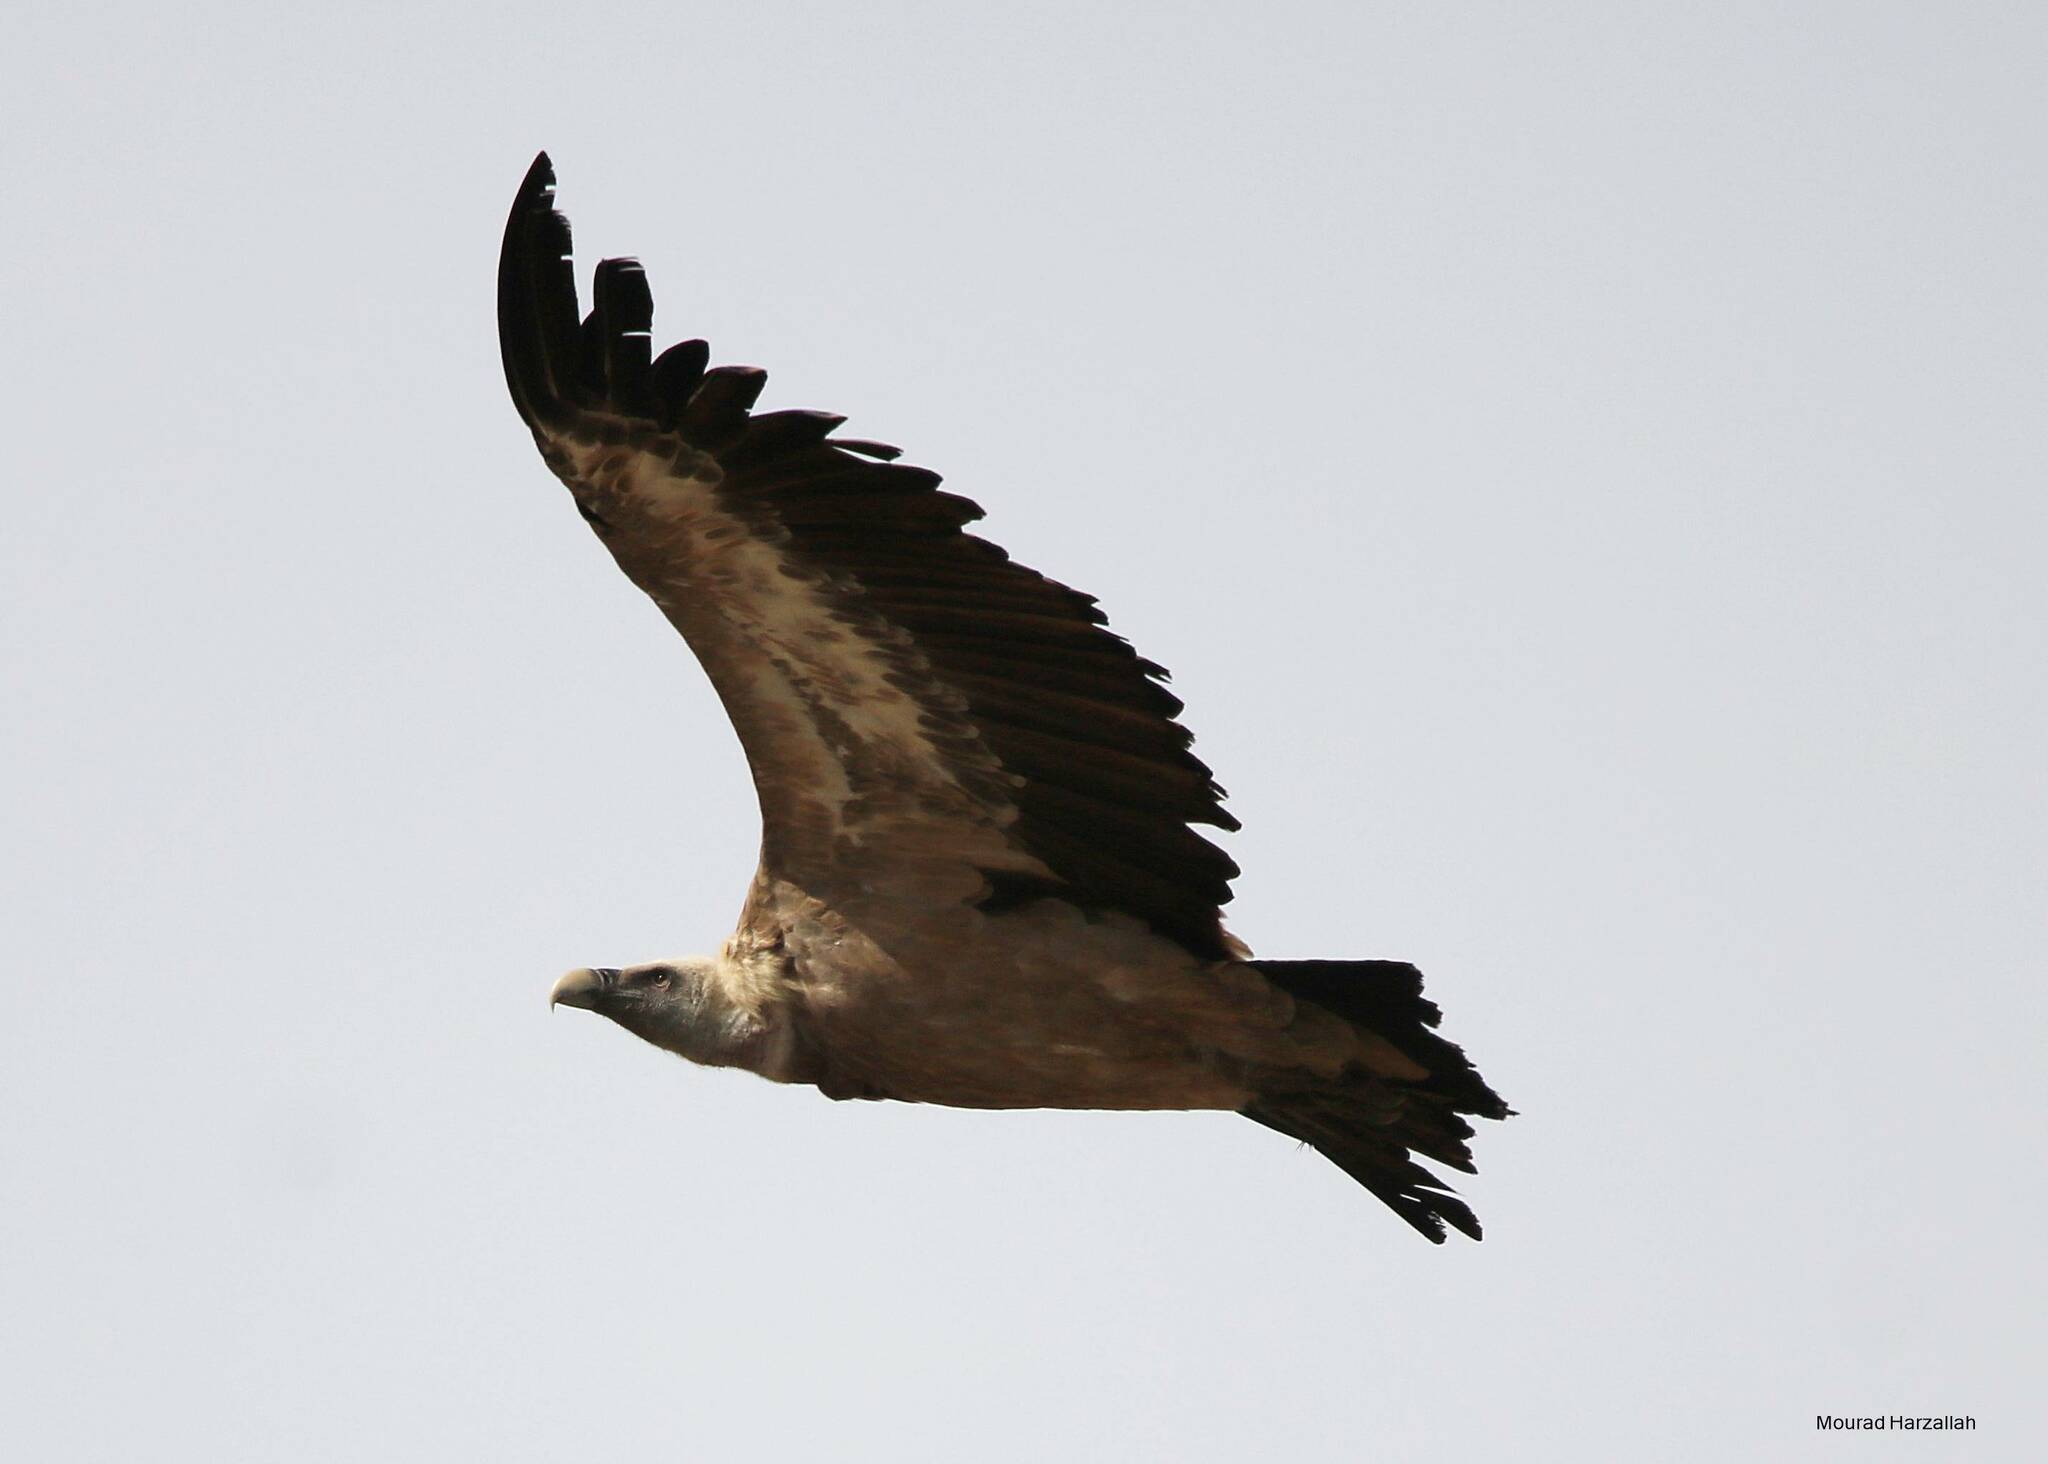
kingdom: Animalia
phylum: Chordata
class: Aves
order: Accipitriformes
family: Accipitridae
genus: Gyps
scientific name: Gyps fulvus
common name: Griffon vulture
